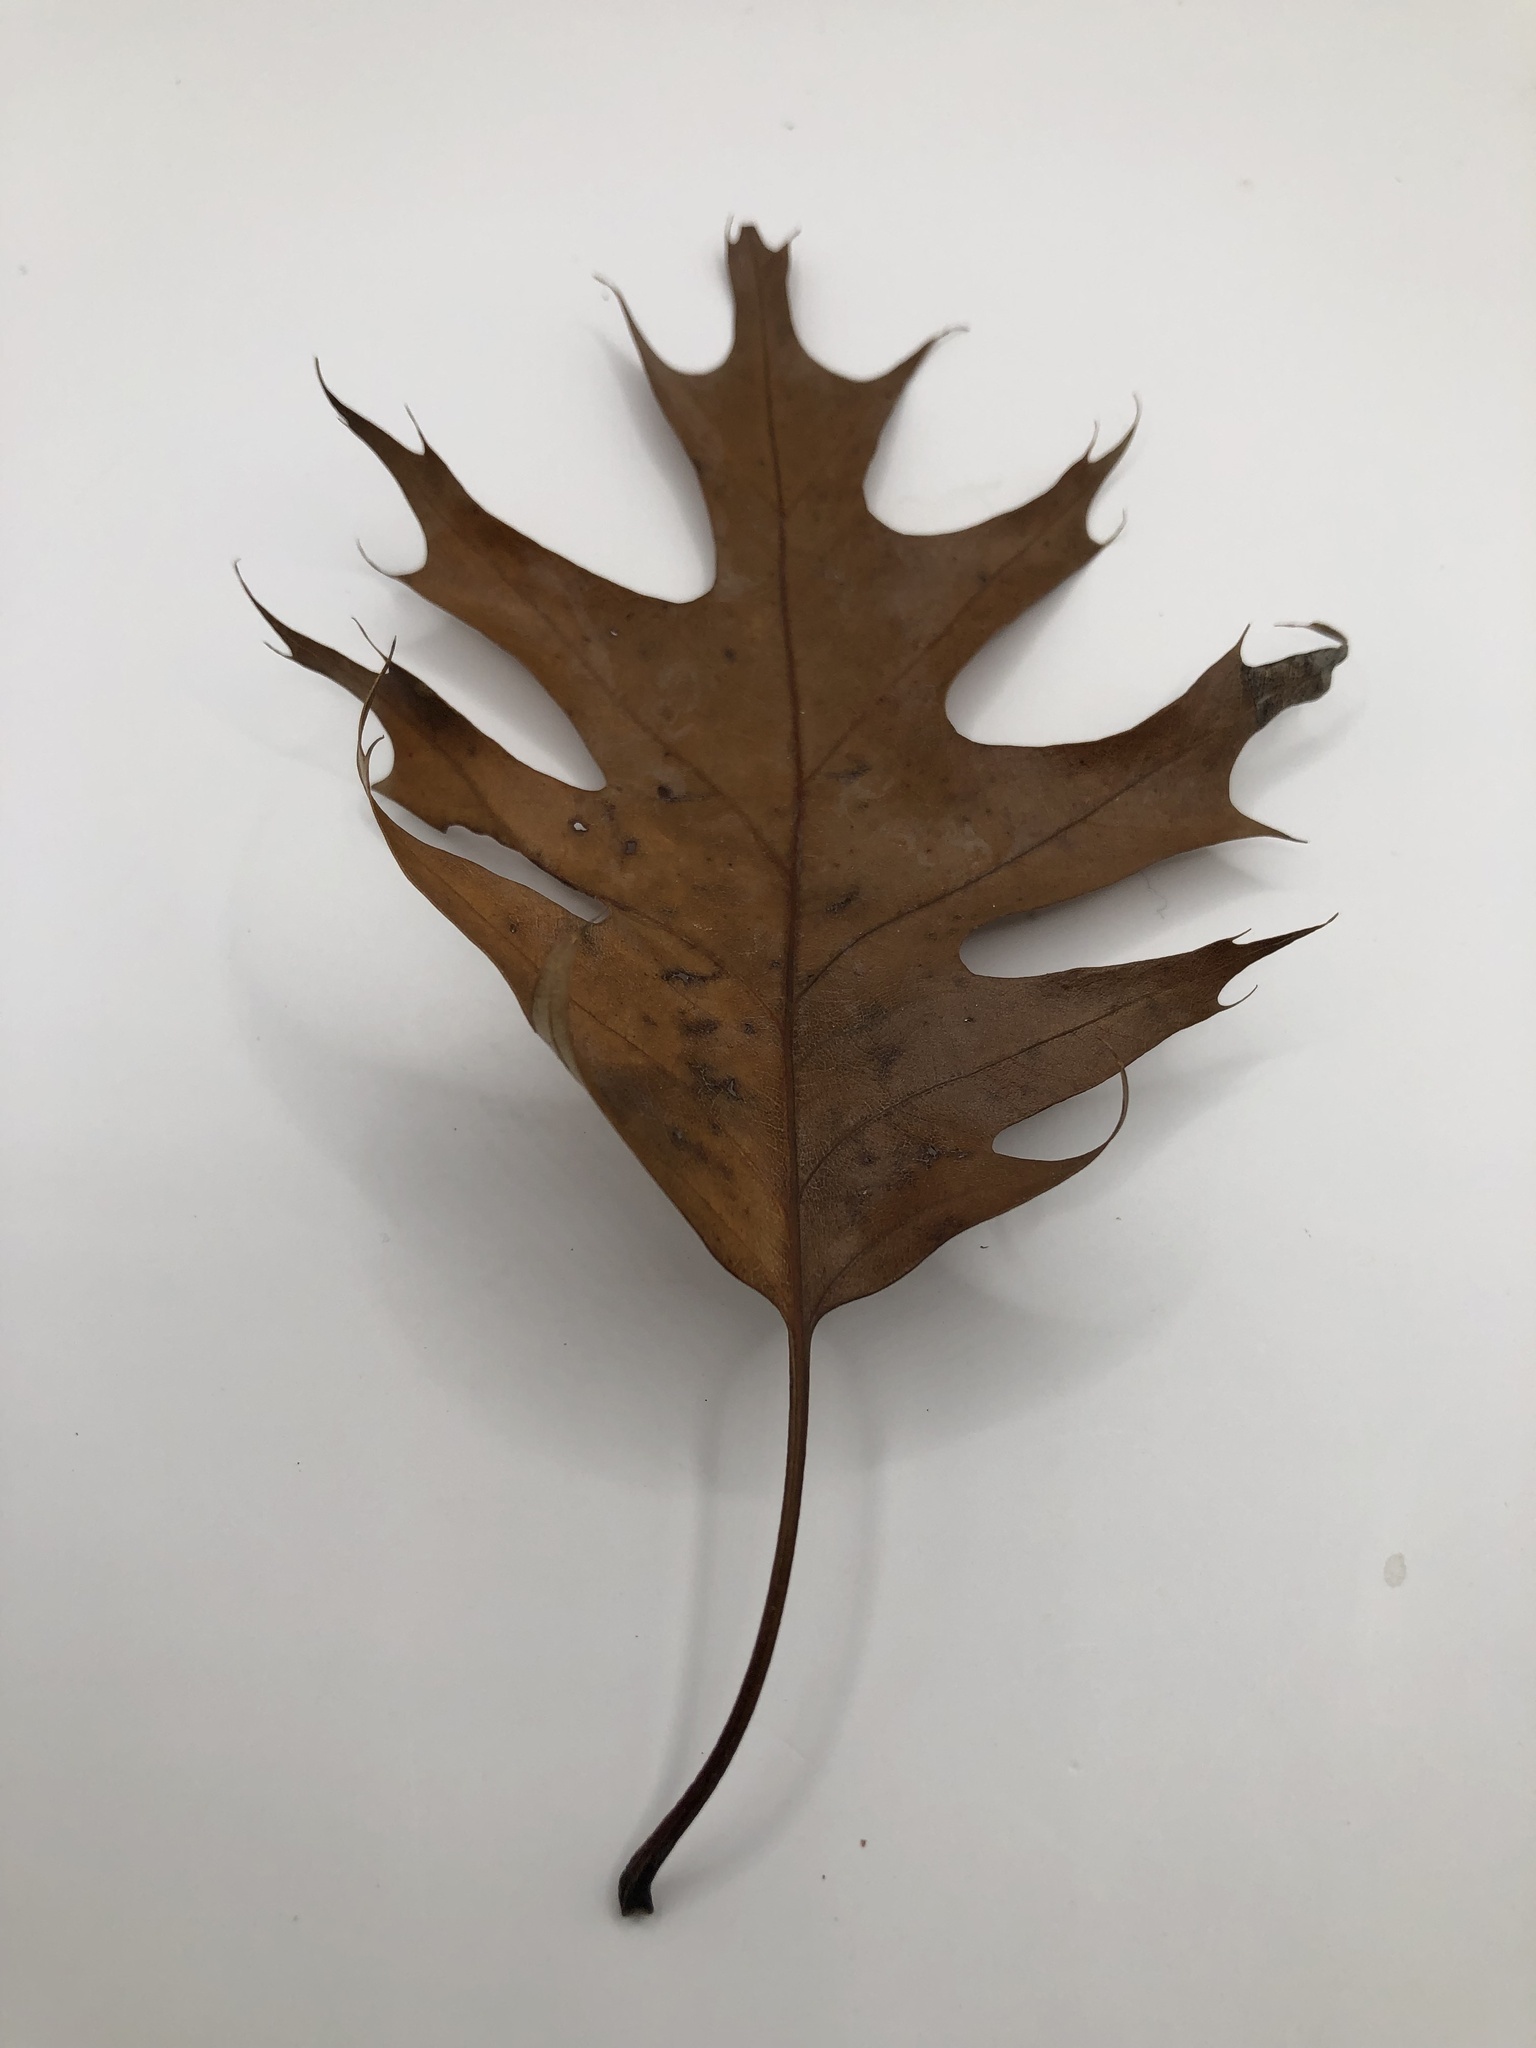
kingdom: Plantae
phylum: Tracheophyta
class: Magnoliopsida
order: Fagales
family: Fagaceae
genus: Quercus
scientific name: Quercus rubra
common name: Red oak
